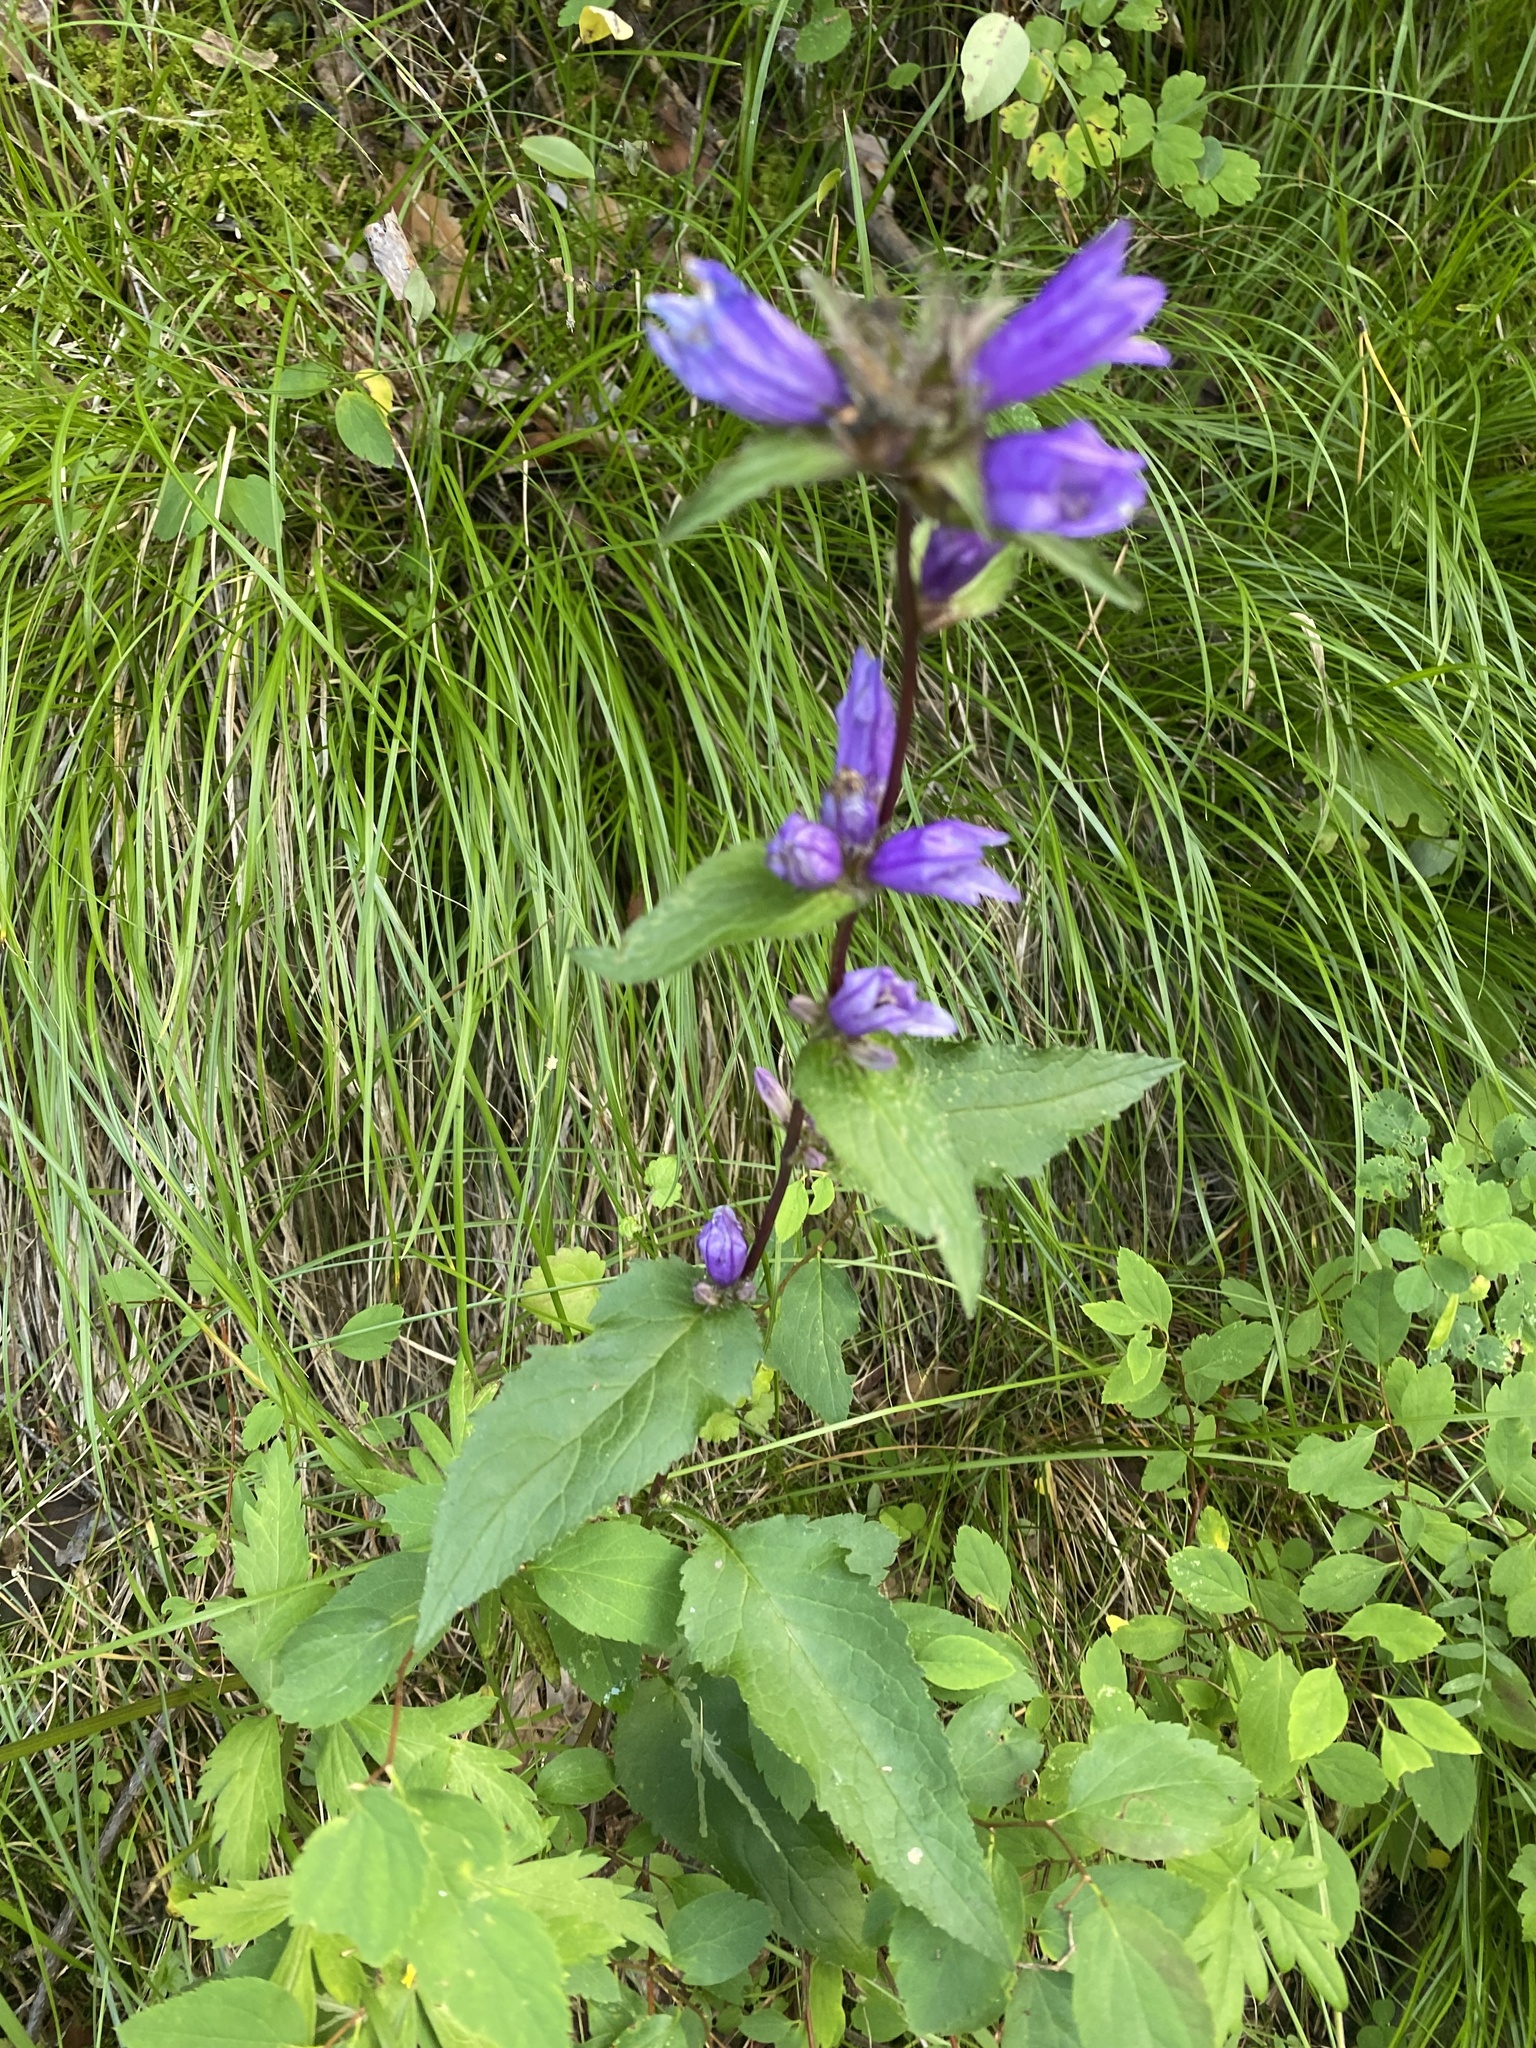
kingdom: Plantae
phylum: Tracheophyta
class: Magnoliopsida
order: Asterales
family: Campanulaceae
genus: Campanula
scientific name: Campanula glomerata
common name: Clustered bellflower
